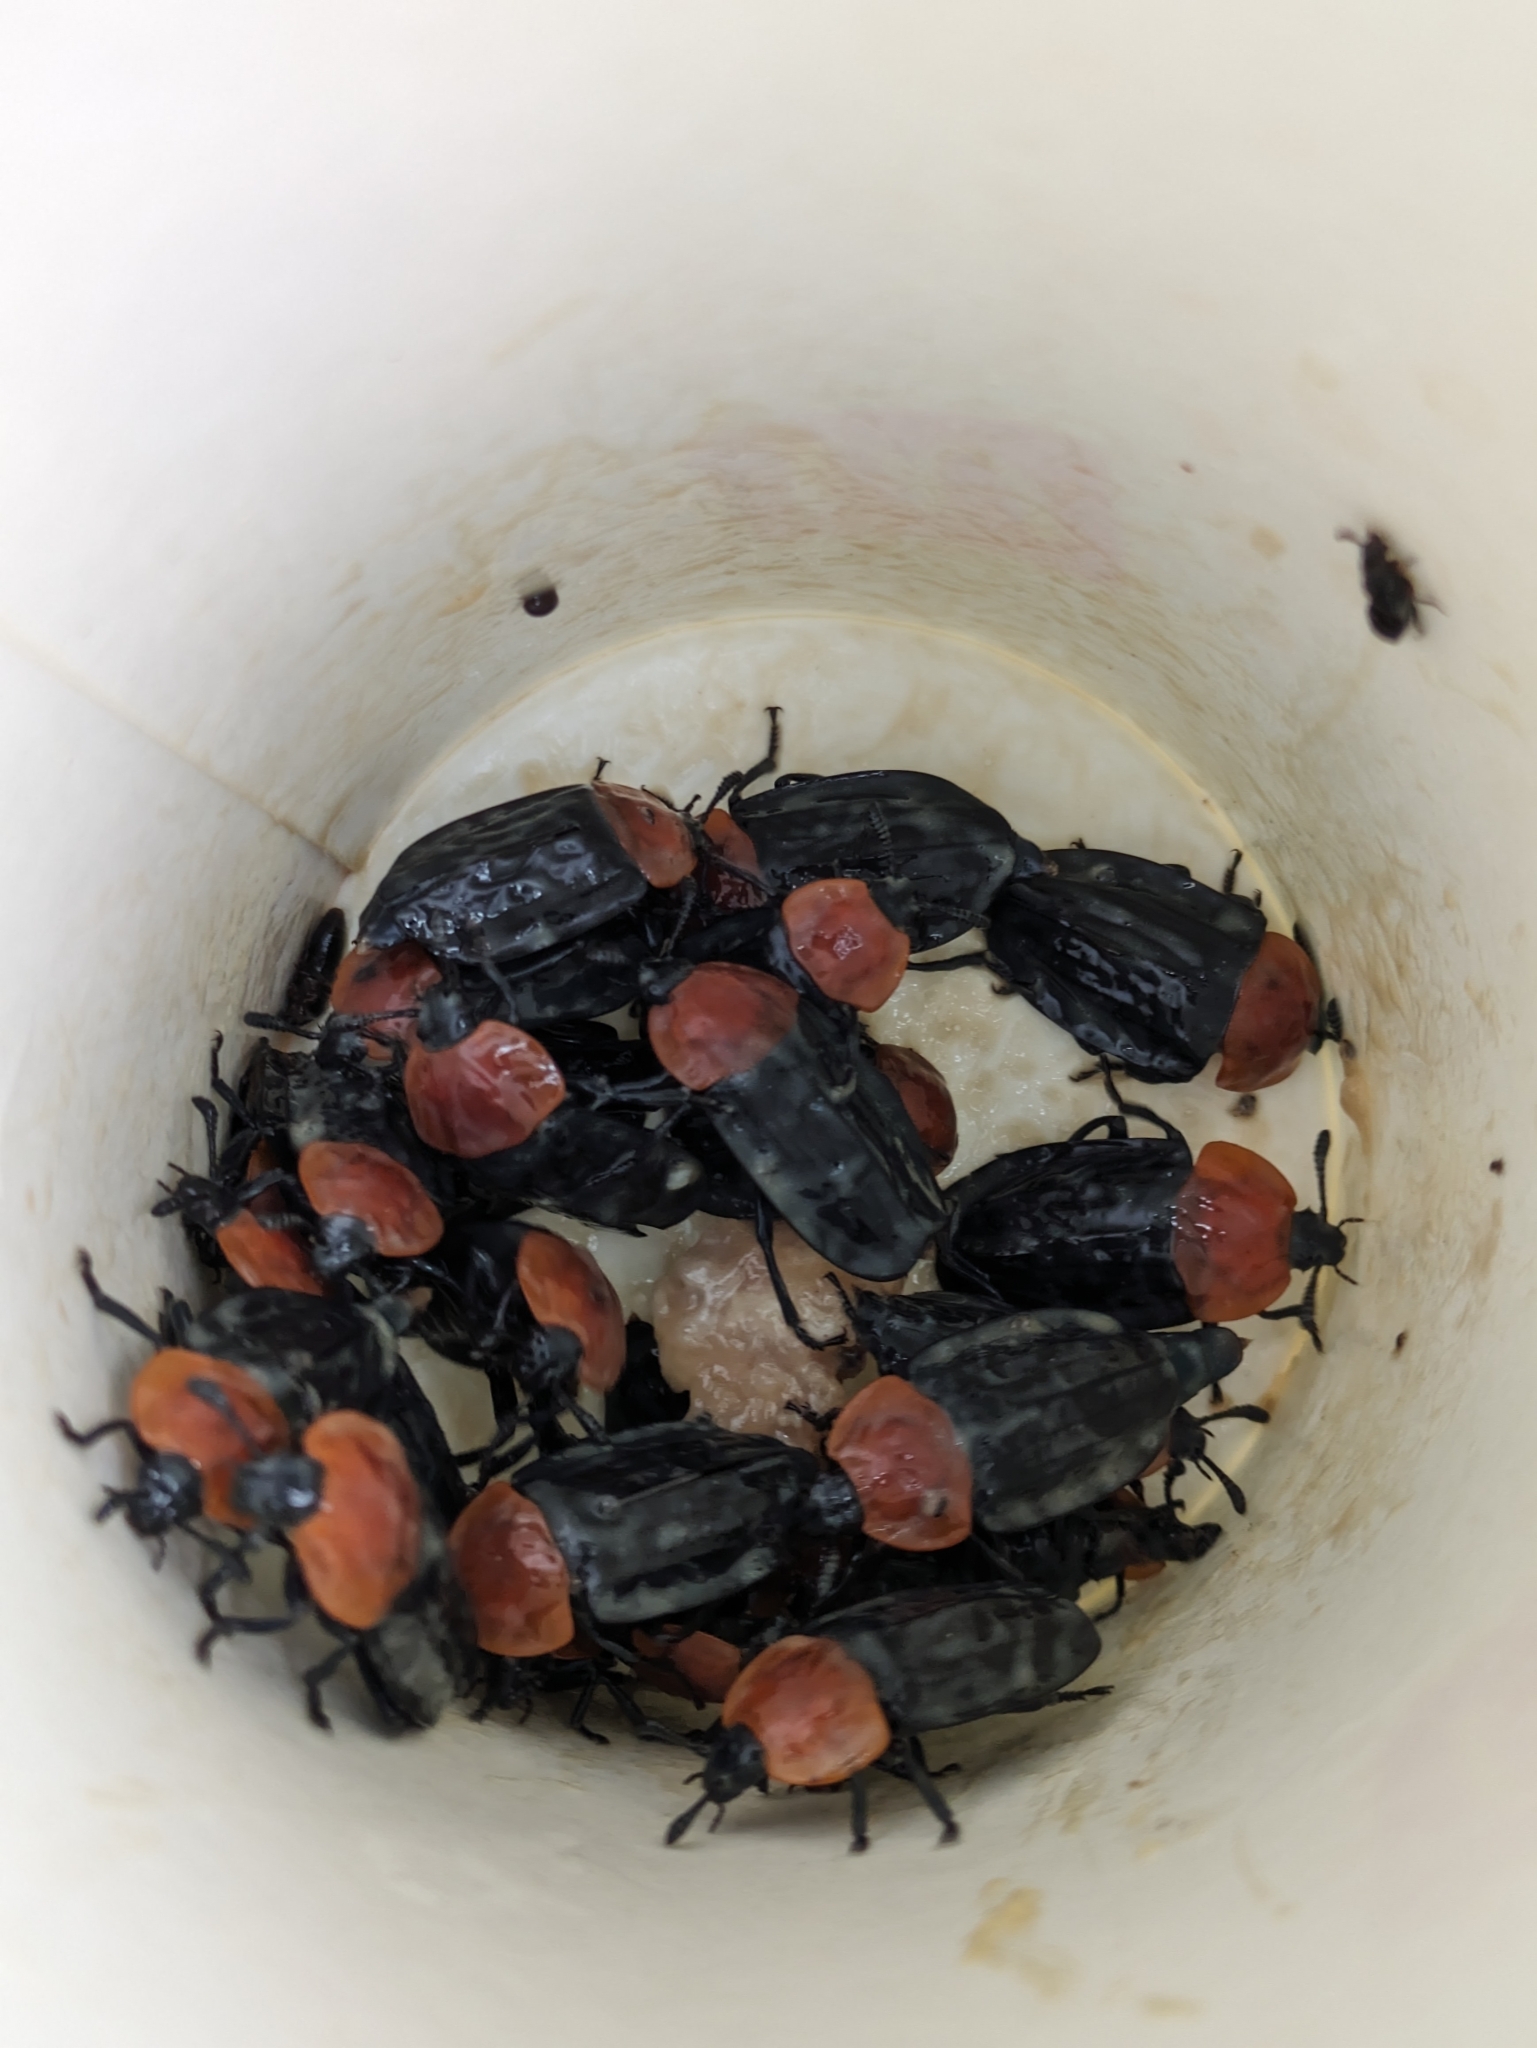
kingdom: Animalia
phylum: Arthropoda
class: Insecta
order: Coleoptera
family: Staphylinidae
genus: Necrophila
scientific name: Necrophila cyaneocephala
